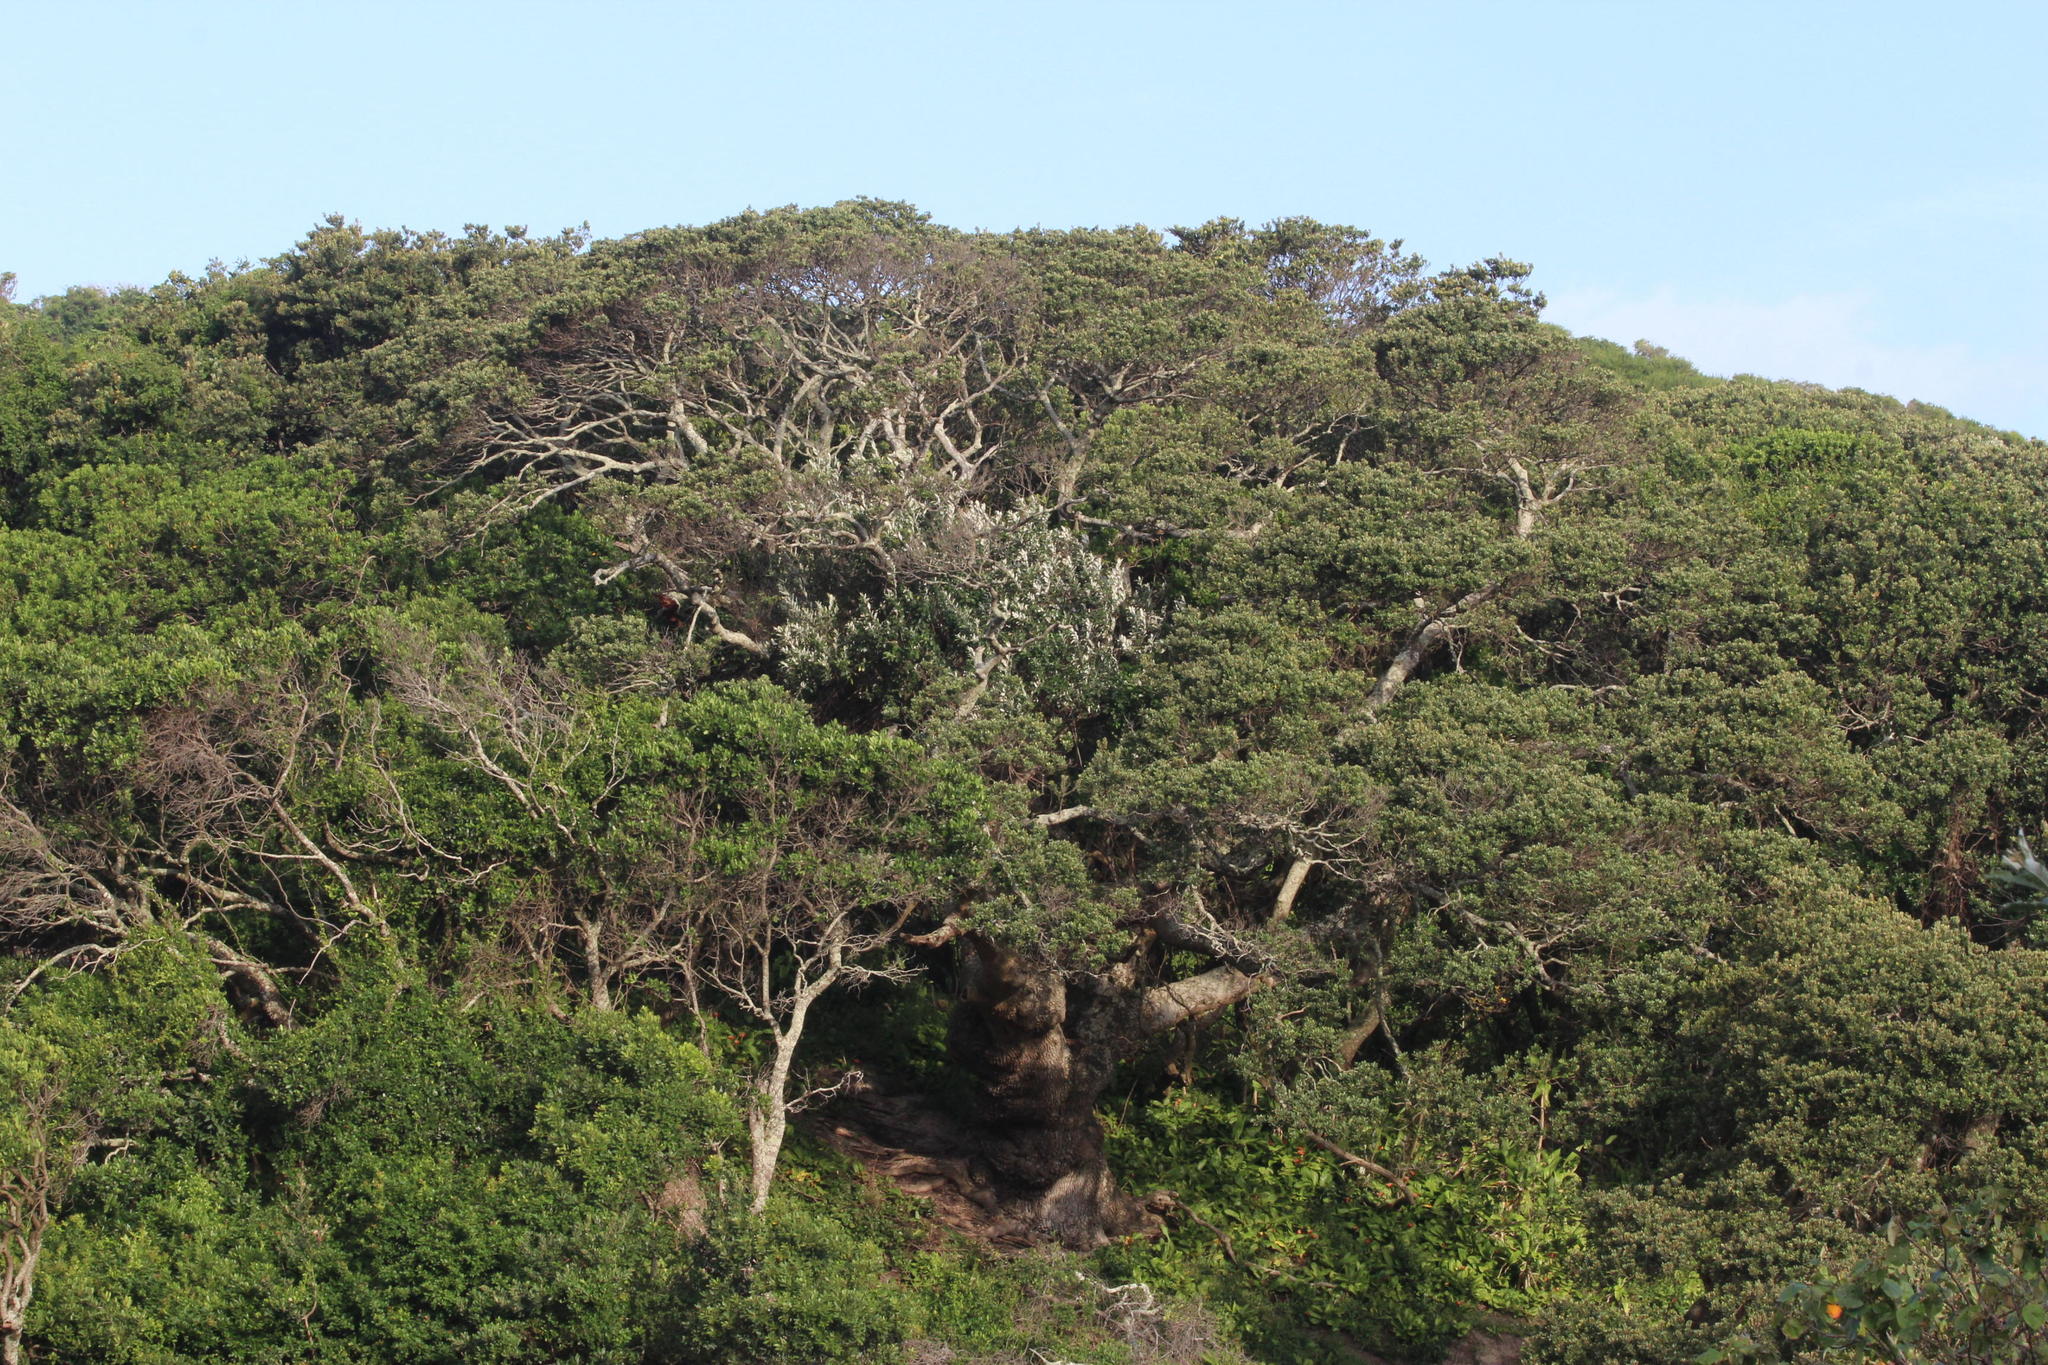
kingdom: Plantae
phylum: Tracheophyta
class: Magnoliopsida
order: Ericales
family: Sapotaceae
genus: Mimusops
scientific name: Mimusops caffra
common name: Coastal red milkwood
